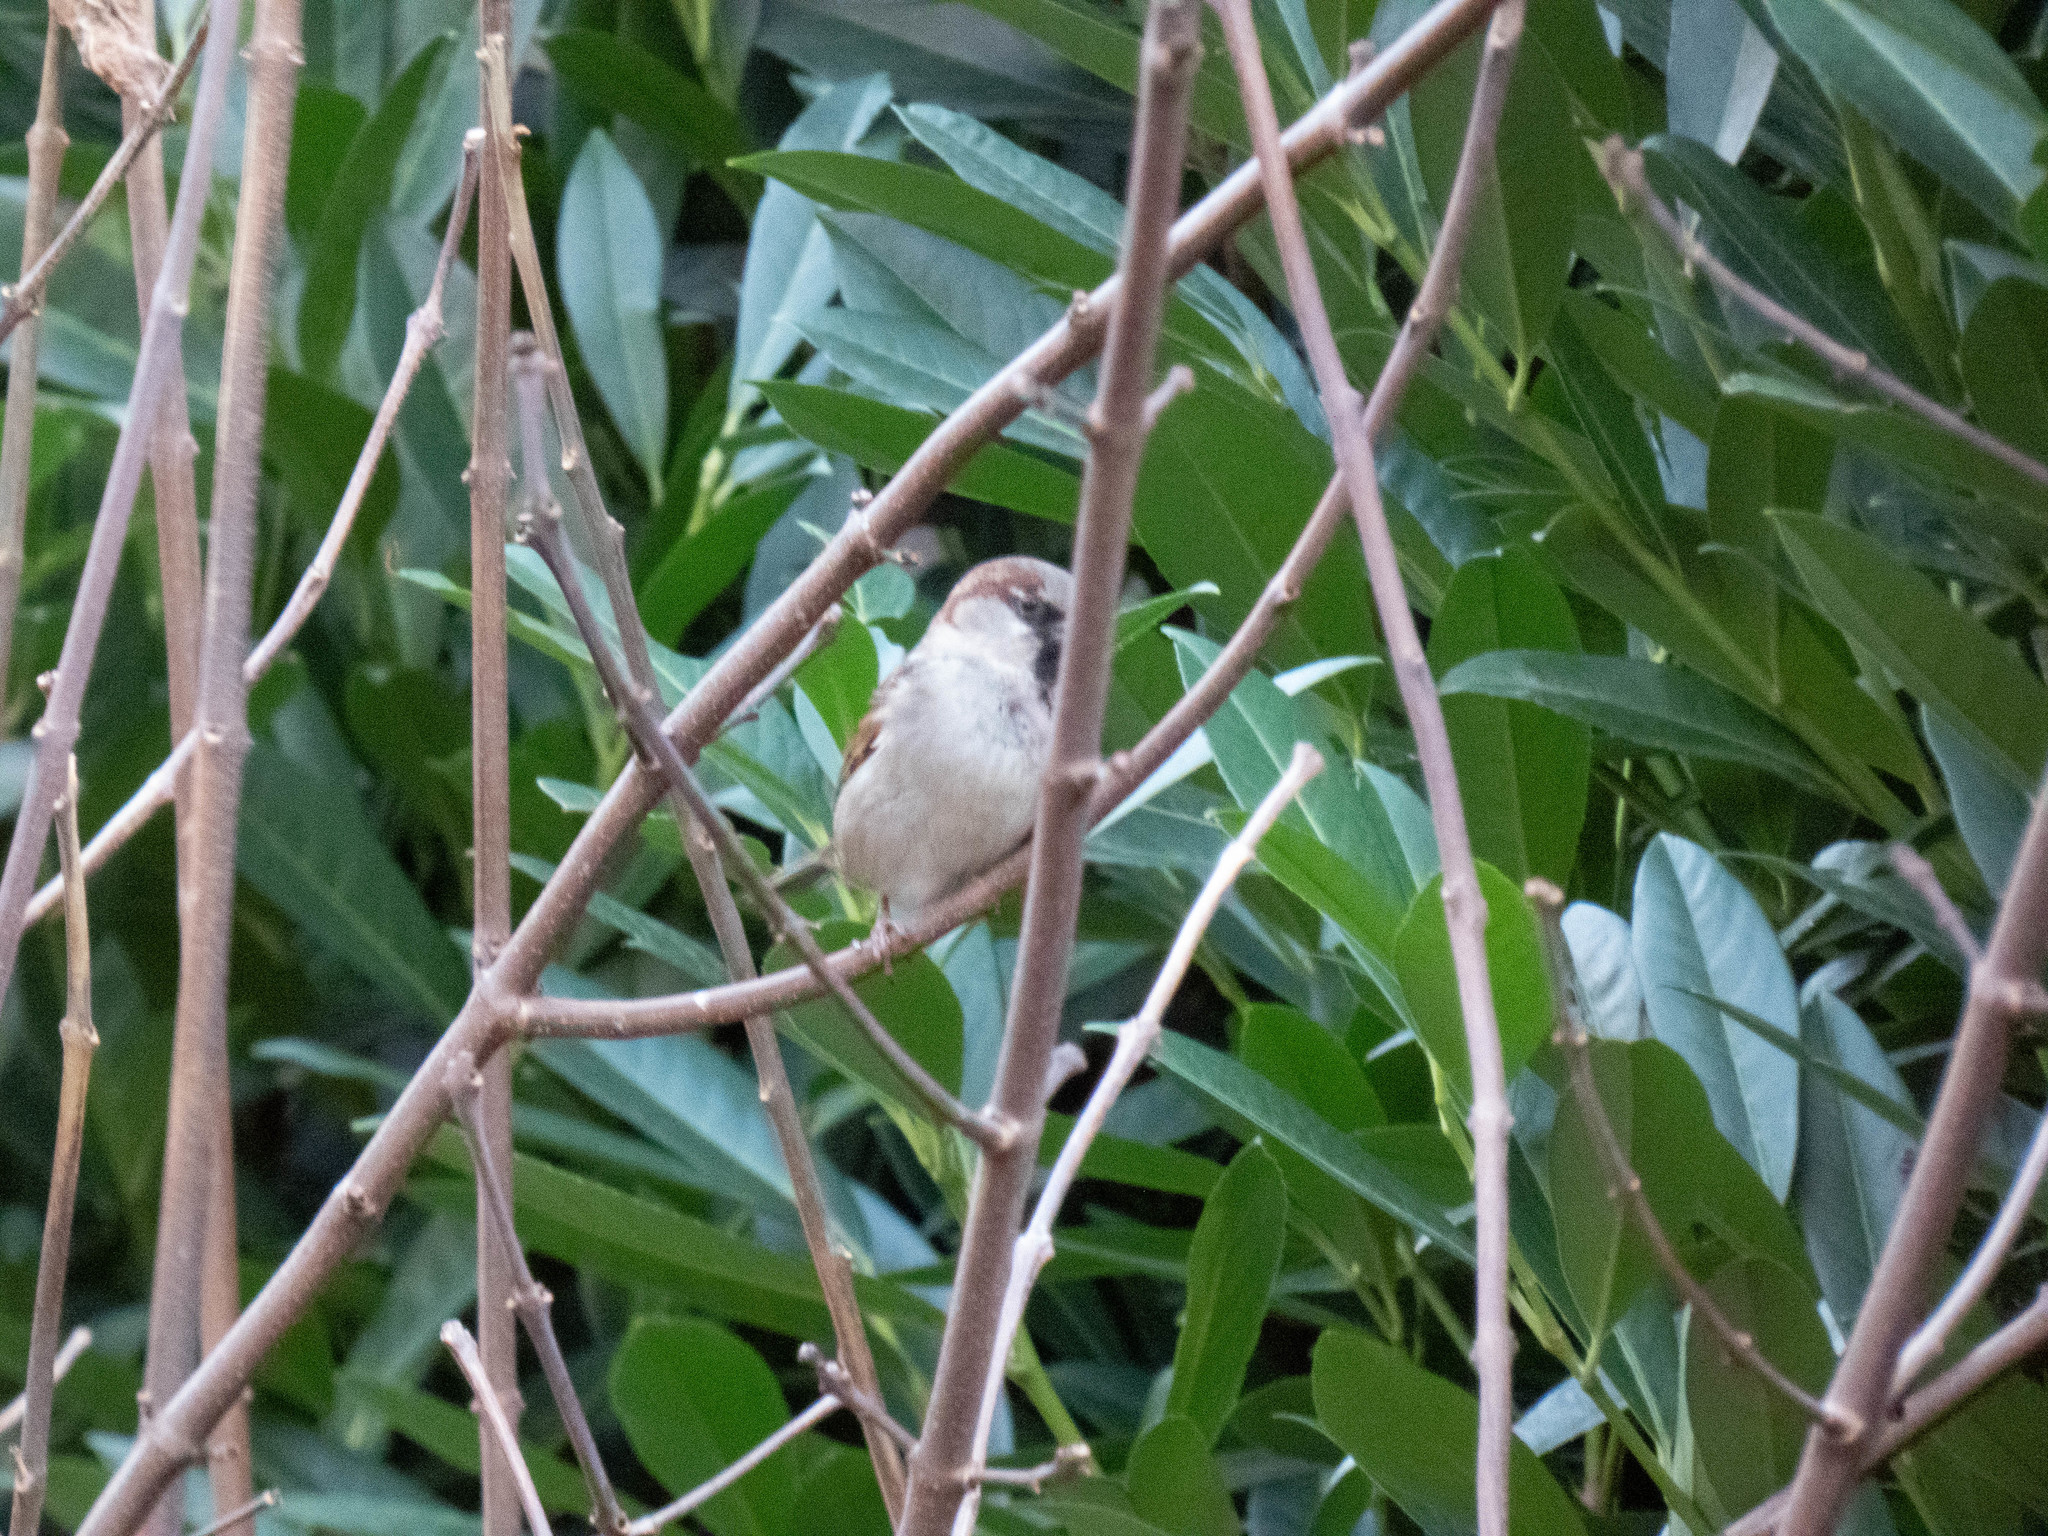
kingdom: Animalia
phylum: Chordata
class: Aves
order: Passeriformes
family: Passeridae
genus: Passer
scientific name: Passer domesticus
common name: House sparrow
